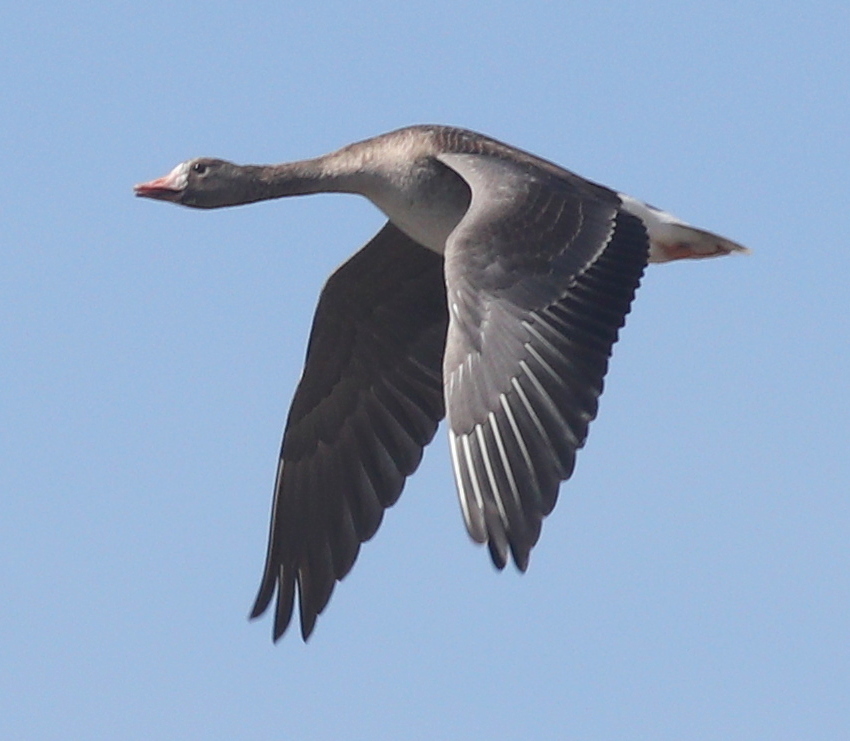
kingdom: Animalia
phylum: Chordata
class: Aves
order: Anseriformes
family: Anatidae
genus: Anser
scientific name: Anser albifrons
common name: Greater white-fronted goose
